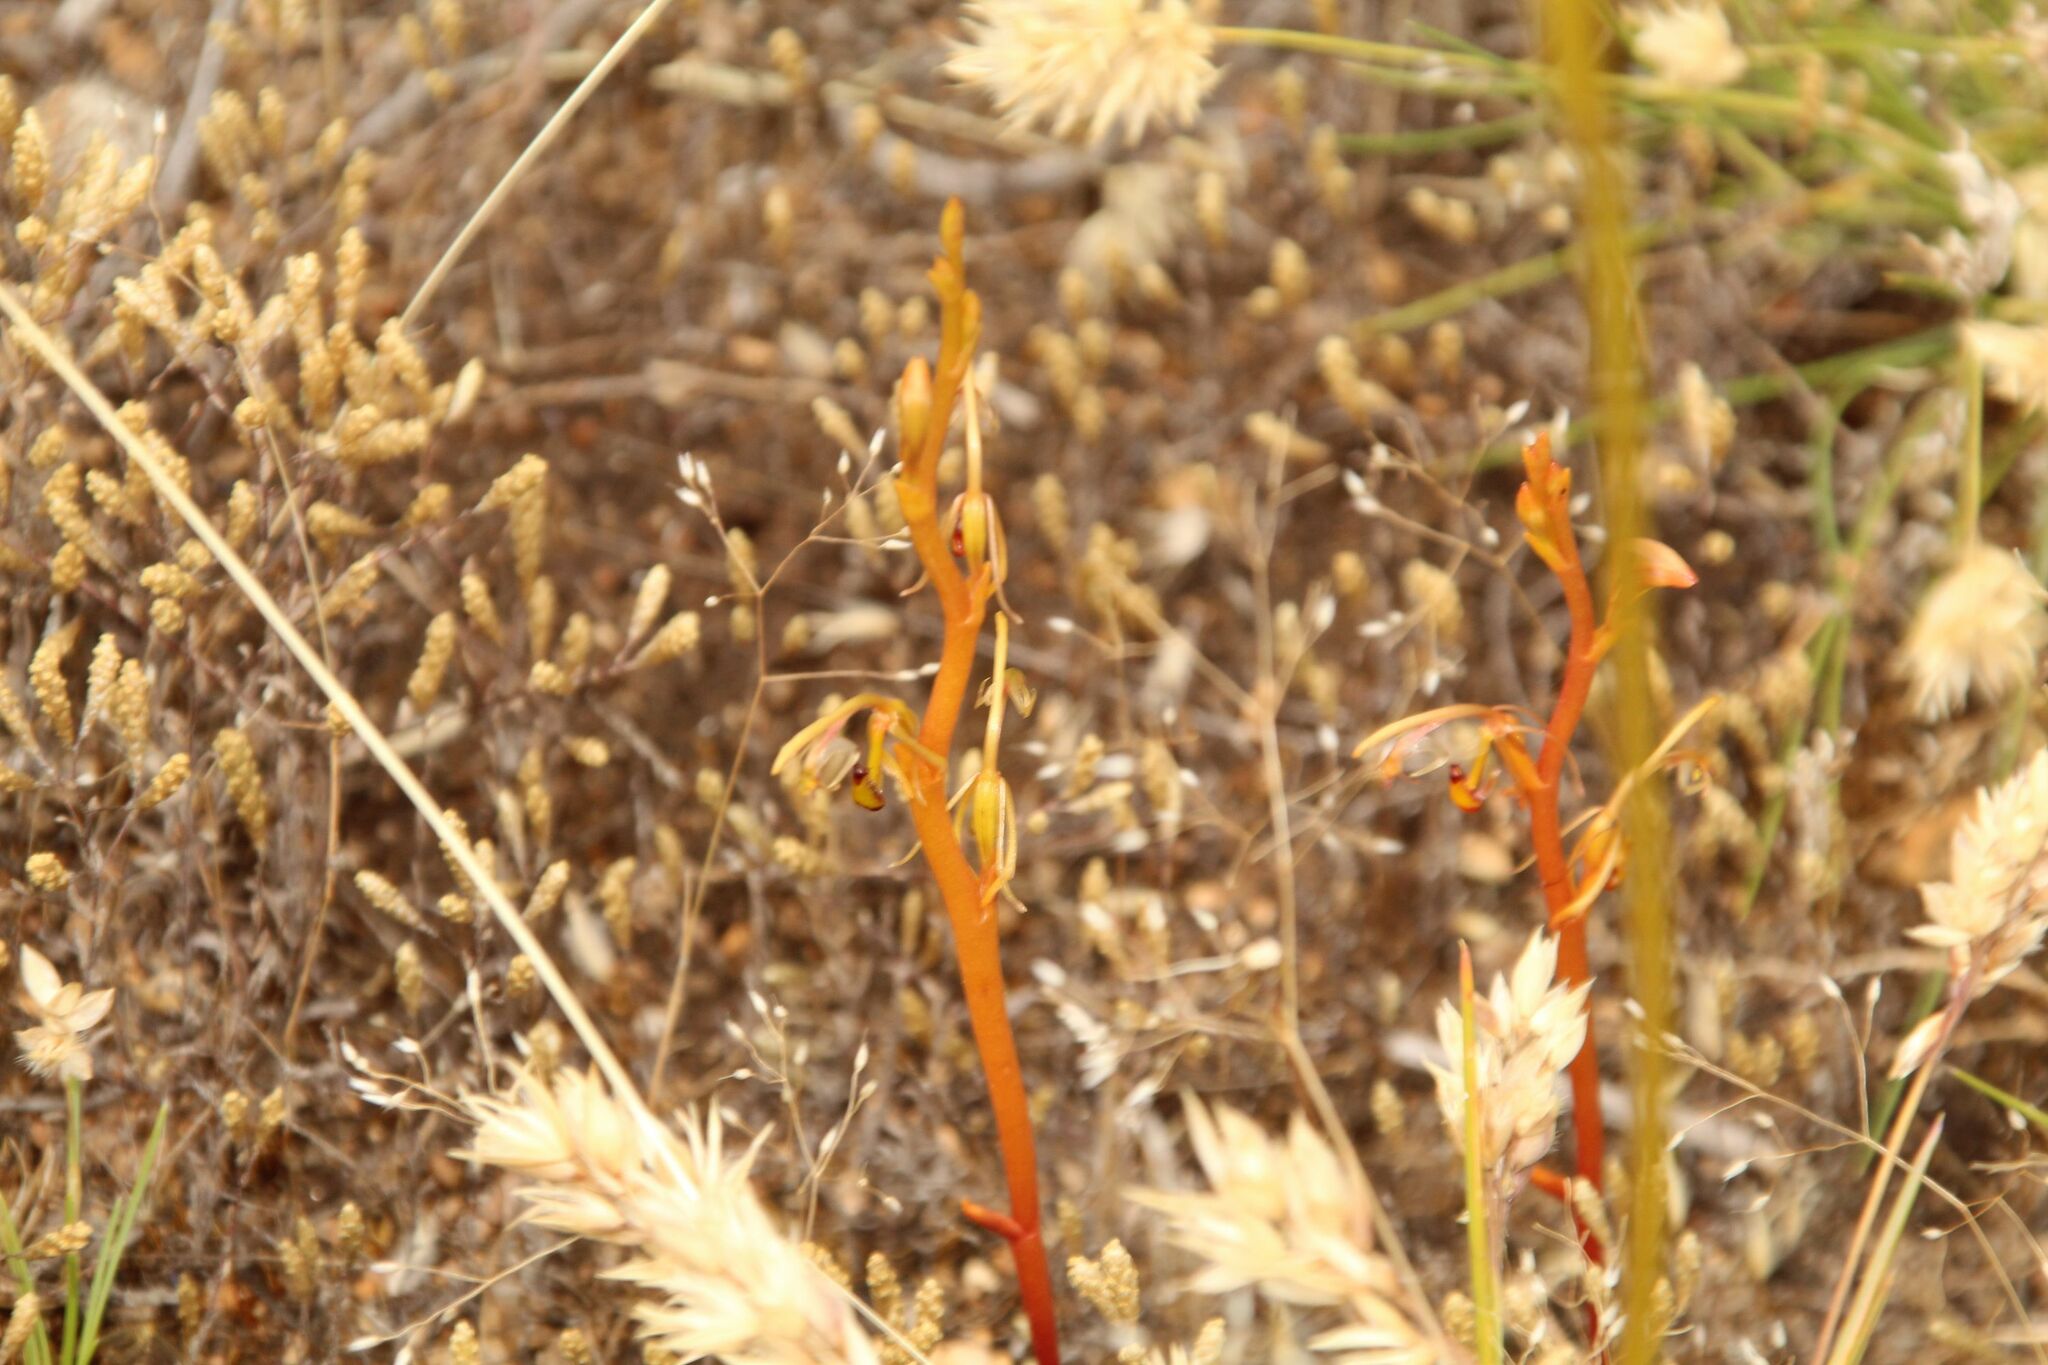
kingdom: Plantae
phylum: Tracheophyta
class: Liliopsida
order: Asparagales
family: Orchidaceae
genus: Spiculaea
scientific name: Spiculaea ciliata
